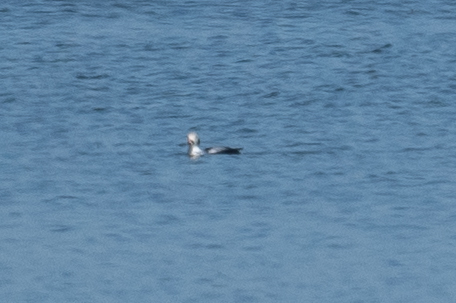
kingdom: Animalia
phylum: Chordata
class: Aves
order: Anseriformes
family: Anatidae
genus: Clangula
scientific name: Clangula hyemalis
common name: Long-tailed duck
